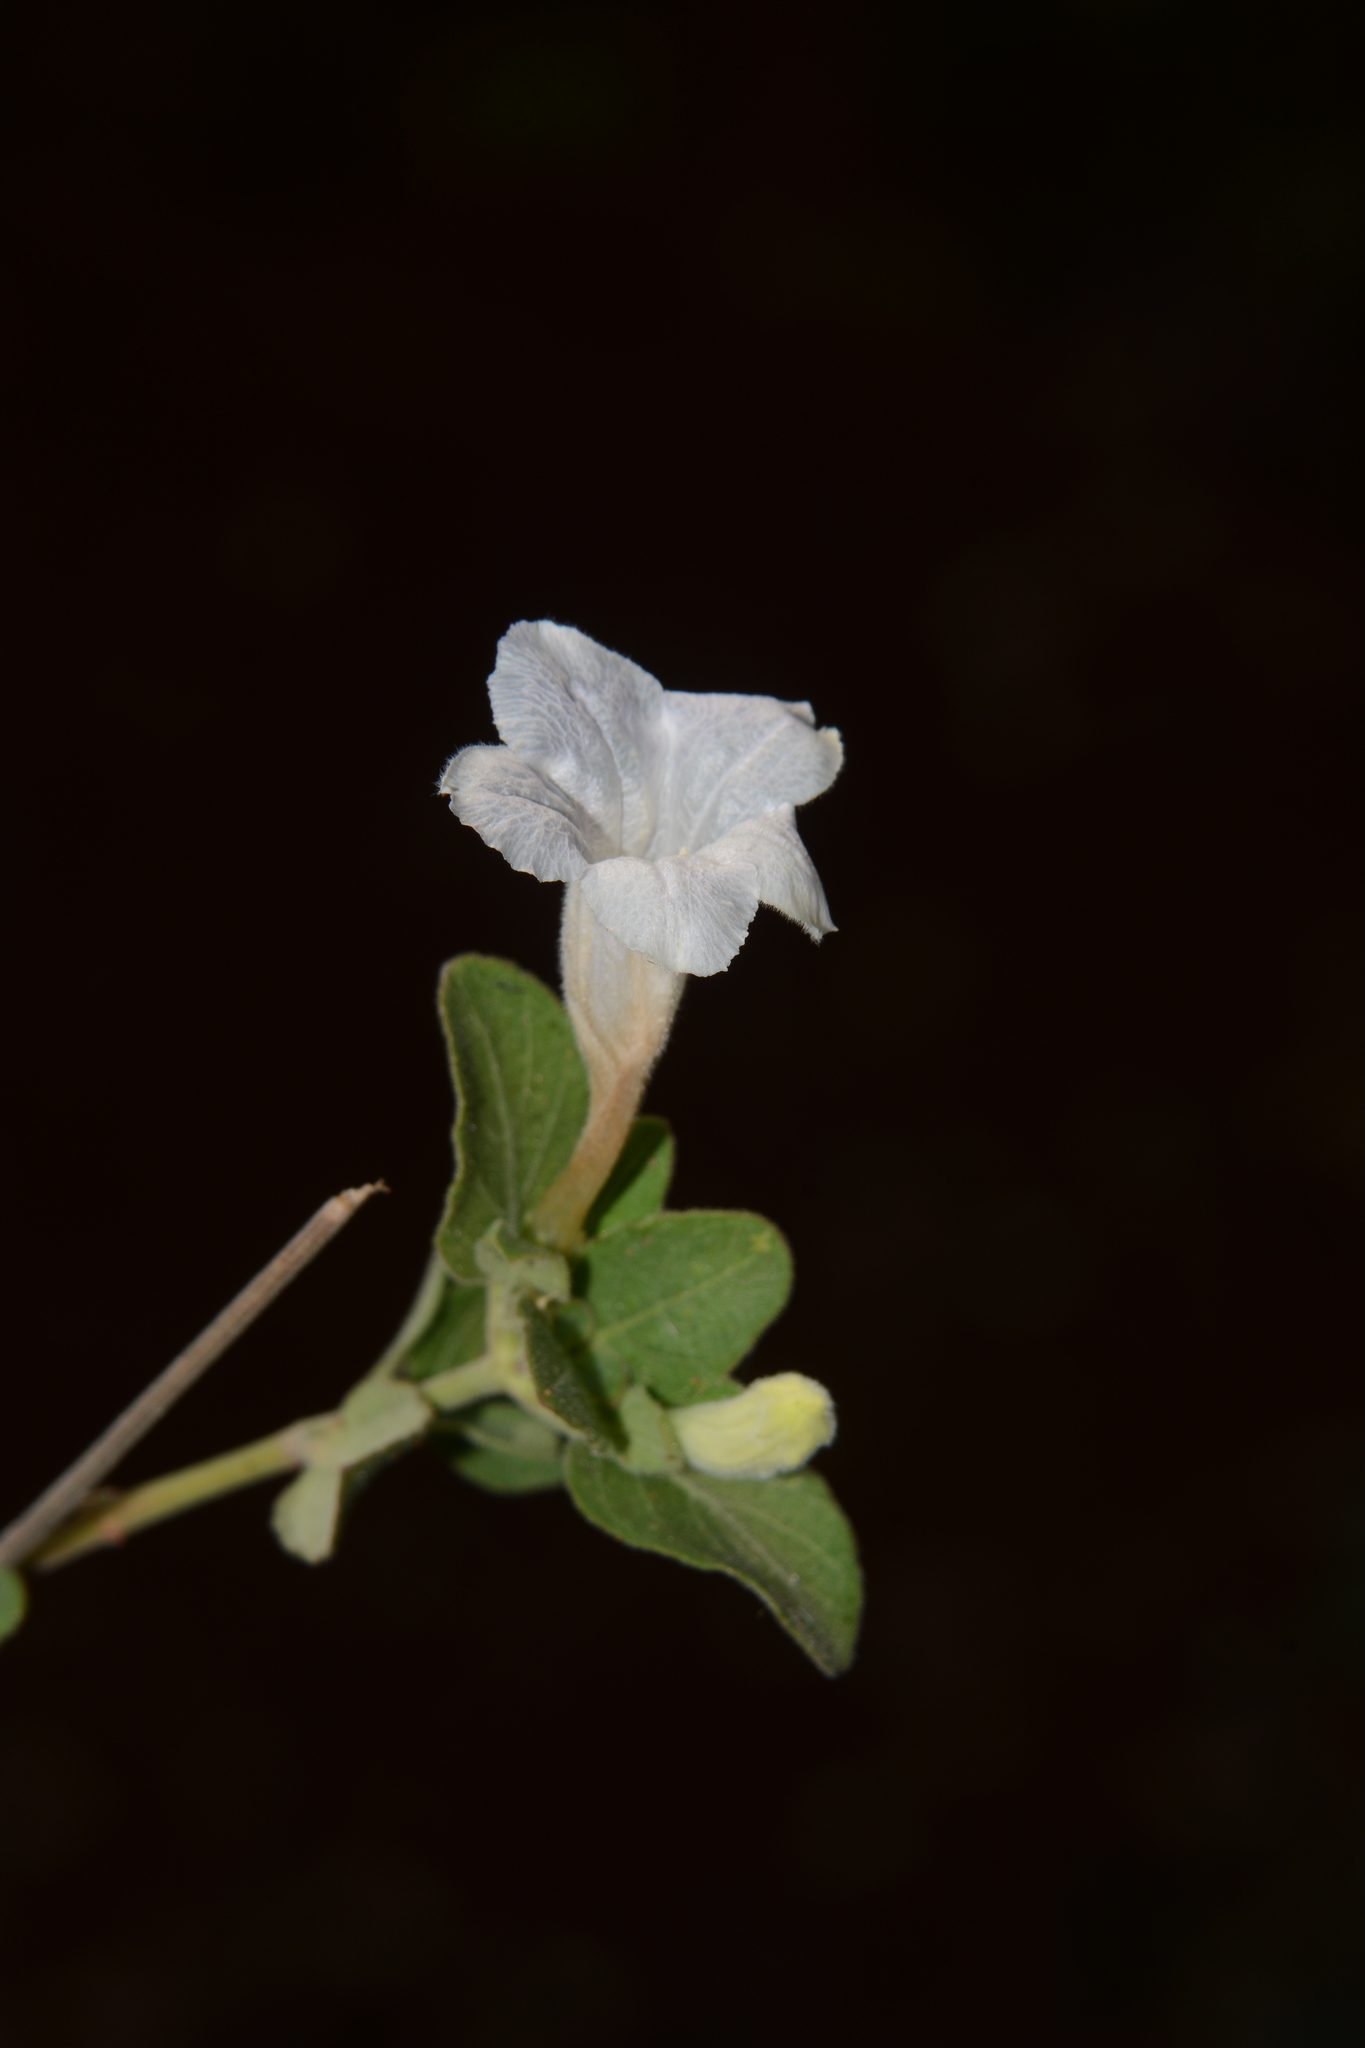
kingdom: Plantae
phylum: Tracheophyta
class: Magnoliopsida
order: Lamiales
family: Acanthaceae
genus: Ruellia
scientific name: Ruellia patula
